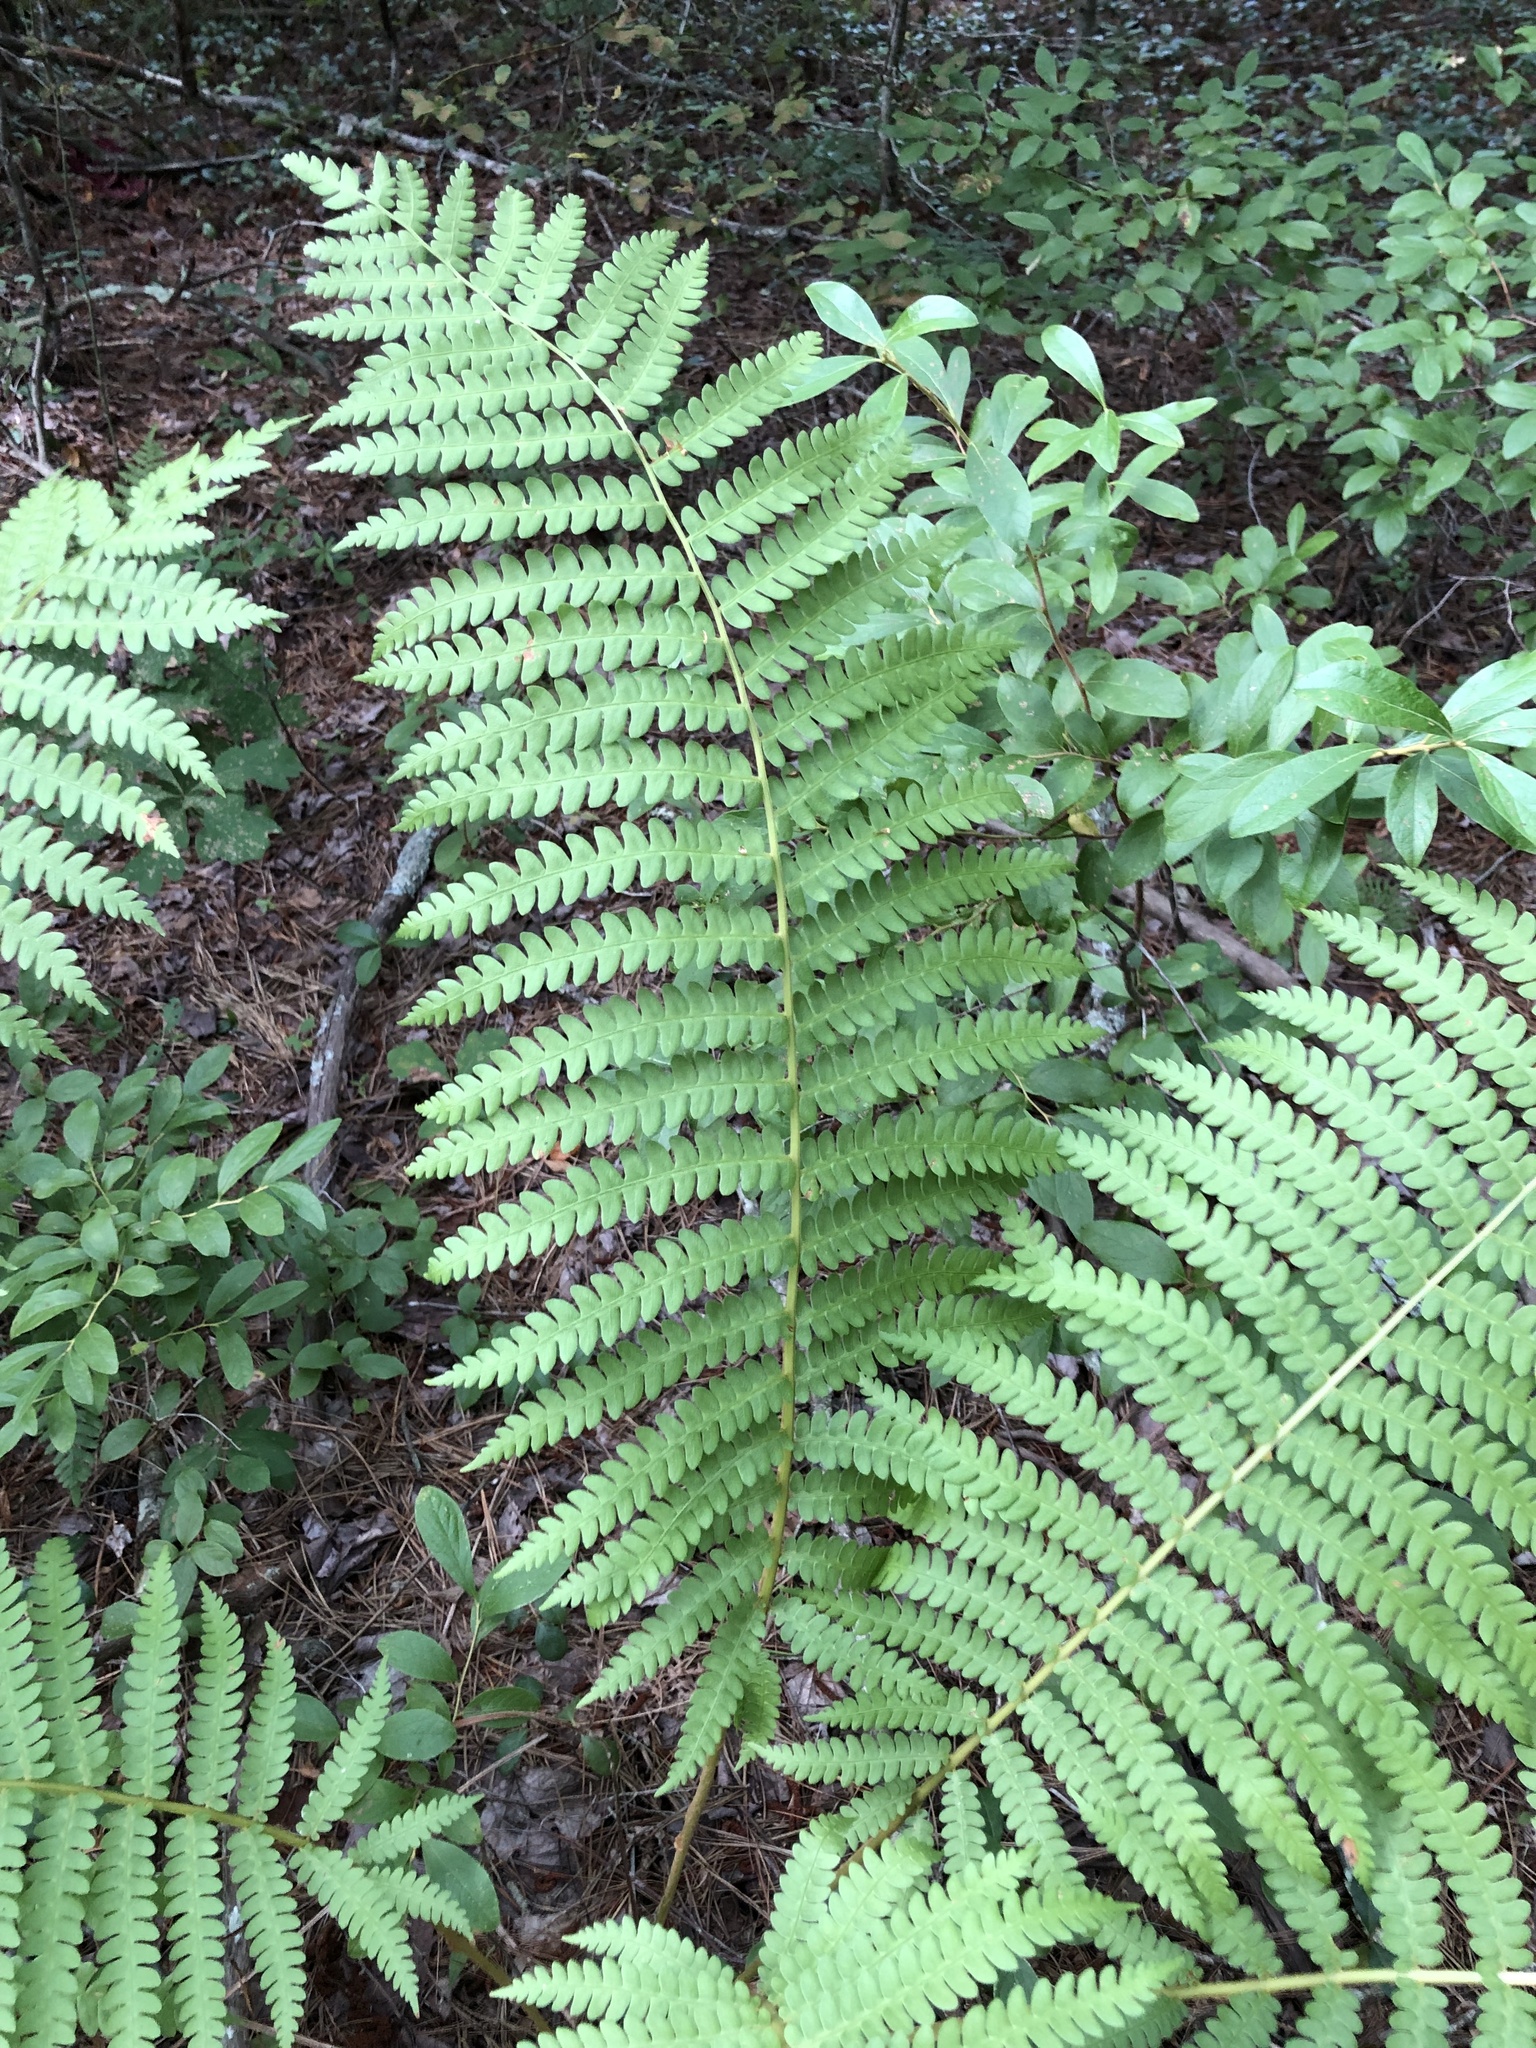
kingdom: Plantae
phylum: Tracheophyta
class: Polypodiopsida
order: Osmundales
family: Osmundaceae
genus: Osmundastrum
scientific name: Osmundastrum cinnamomeum
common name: Cinnamon fern
